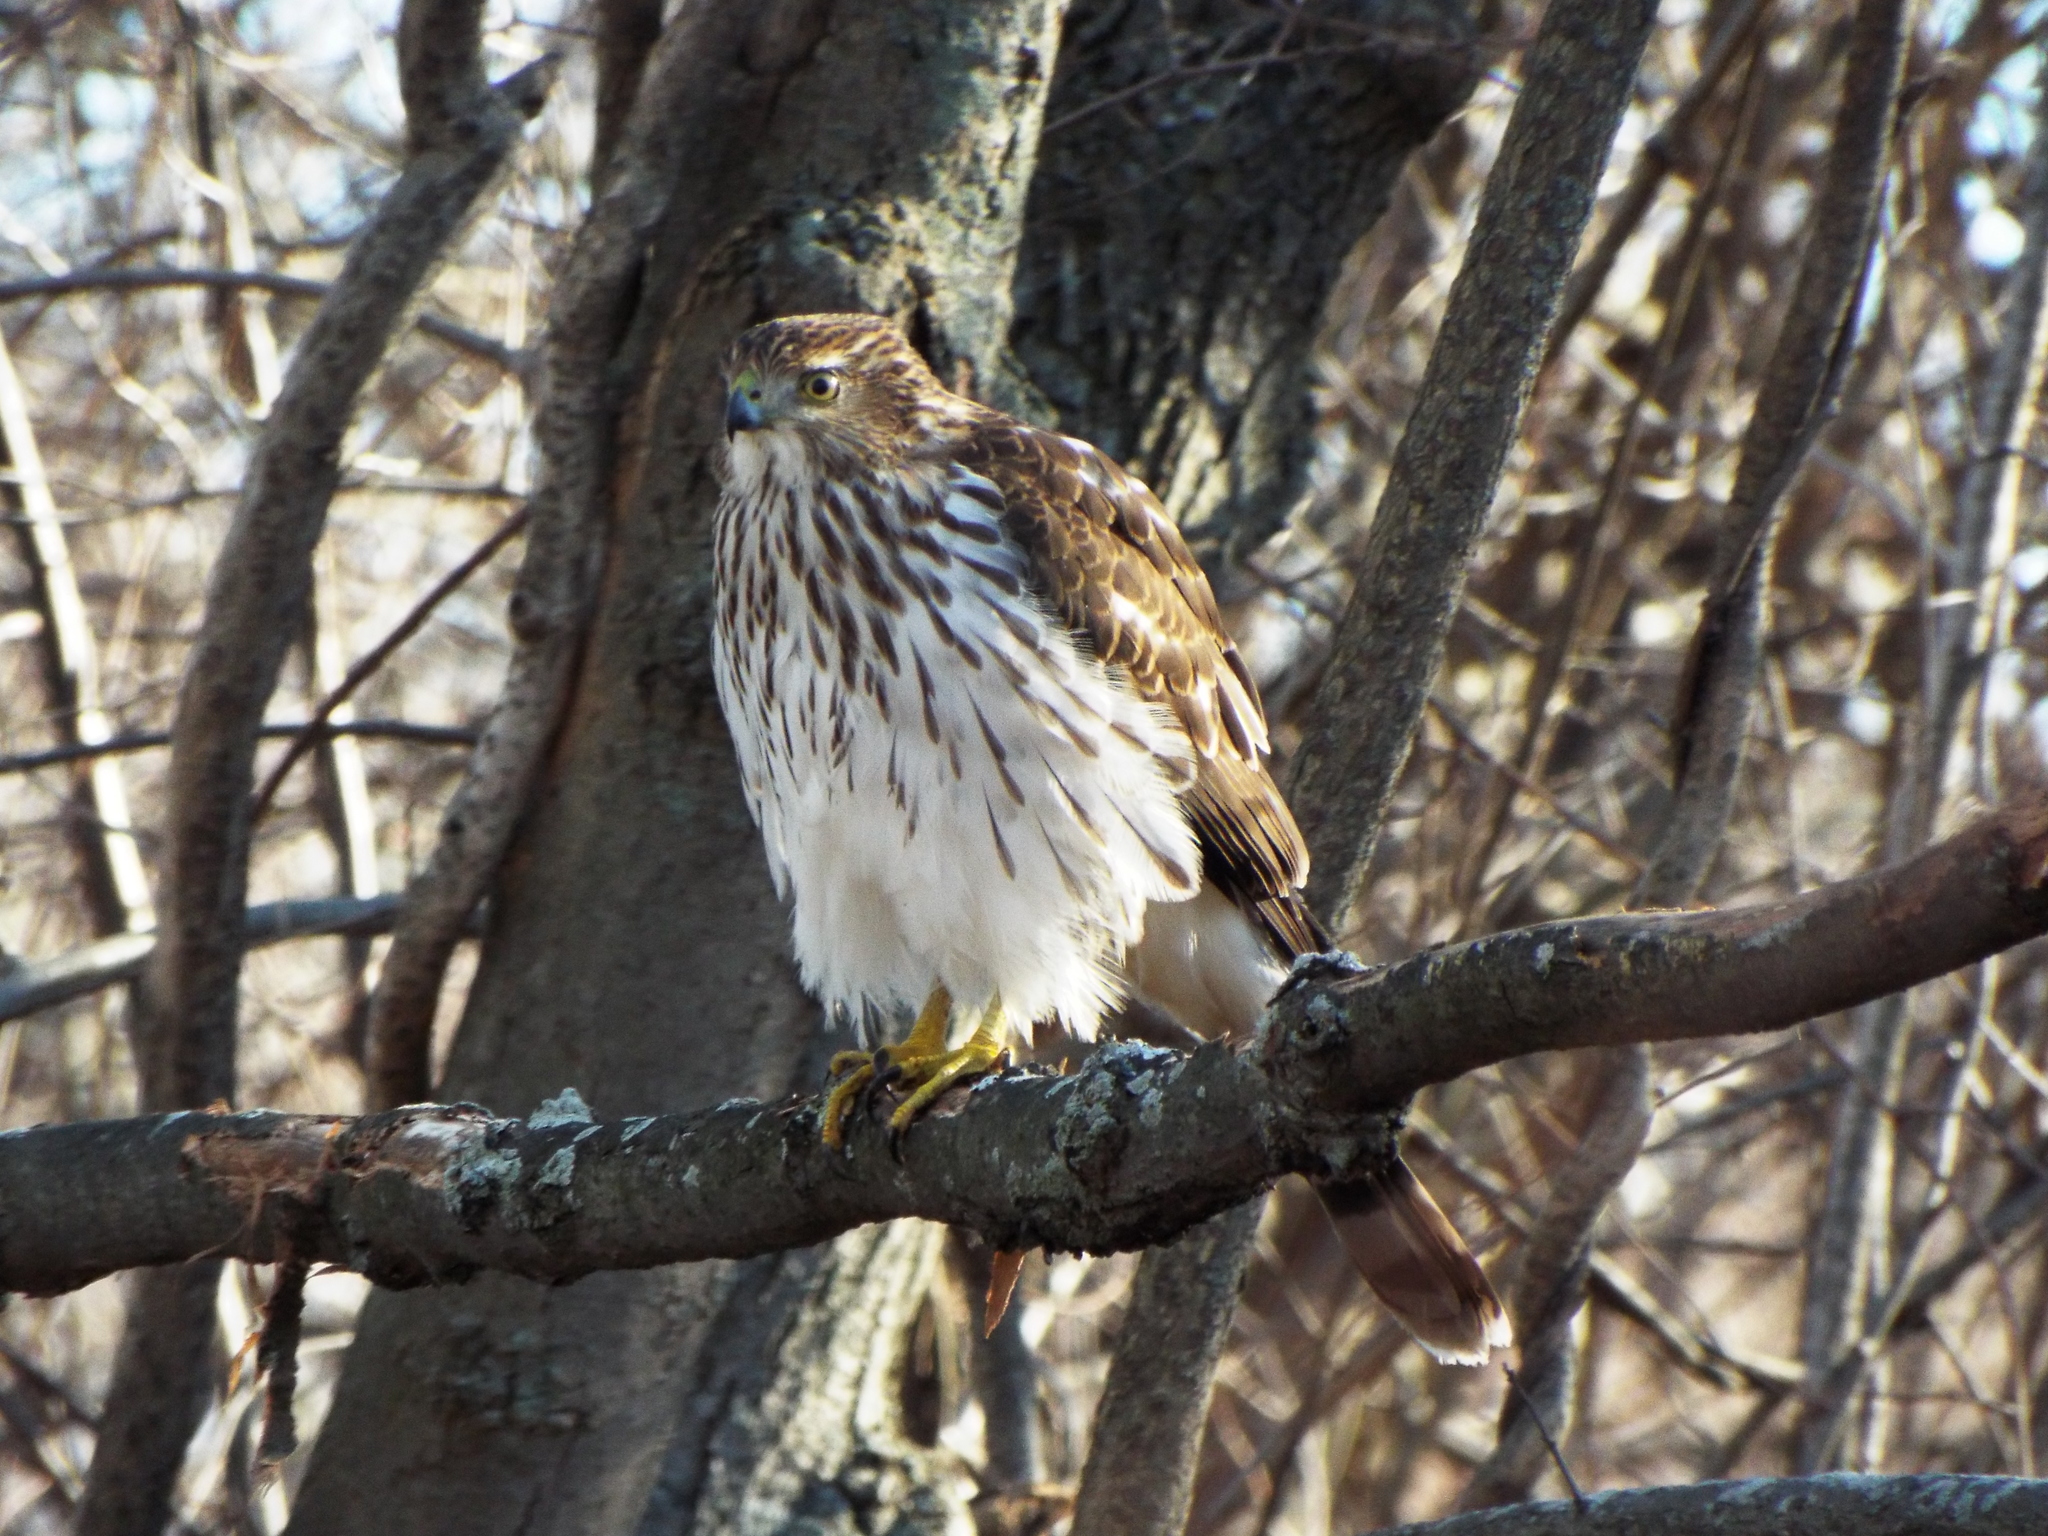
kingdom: Animalia
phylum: Chordata
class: Aves
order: Accipitriformes
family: Accipitridae
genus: Accipiter
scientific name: Accipiter cooperii
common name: Cooper's hawk
